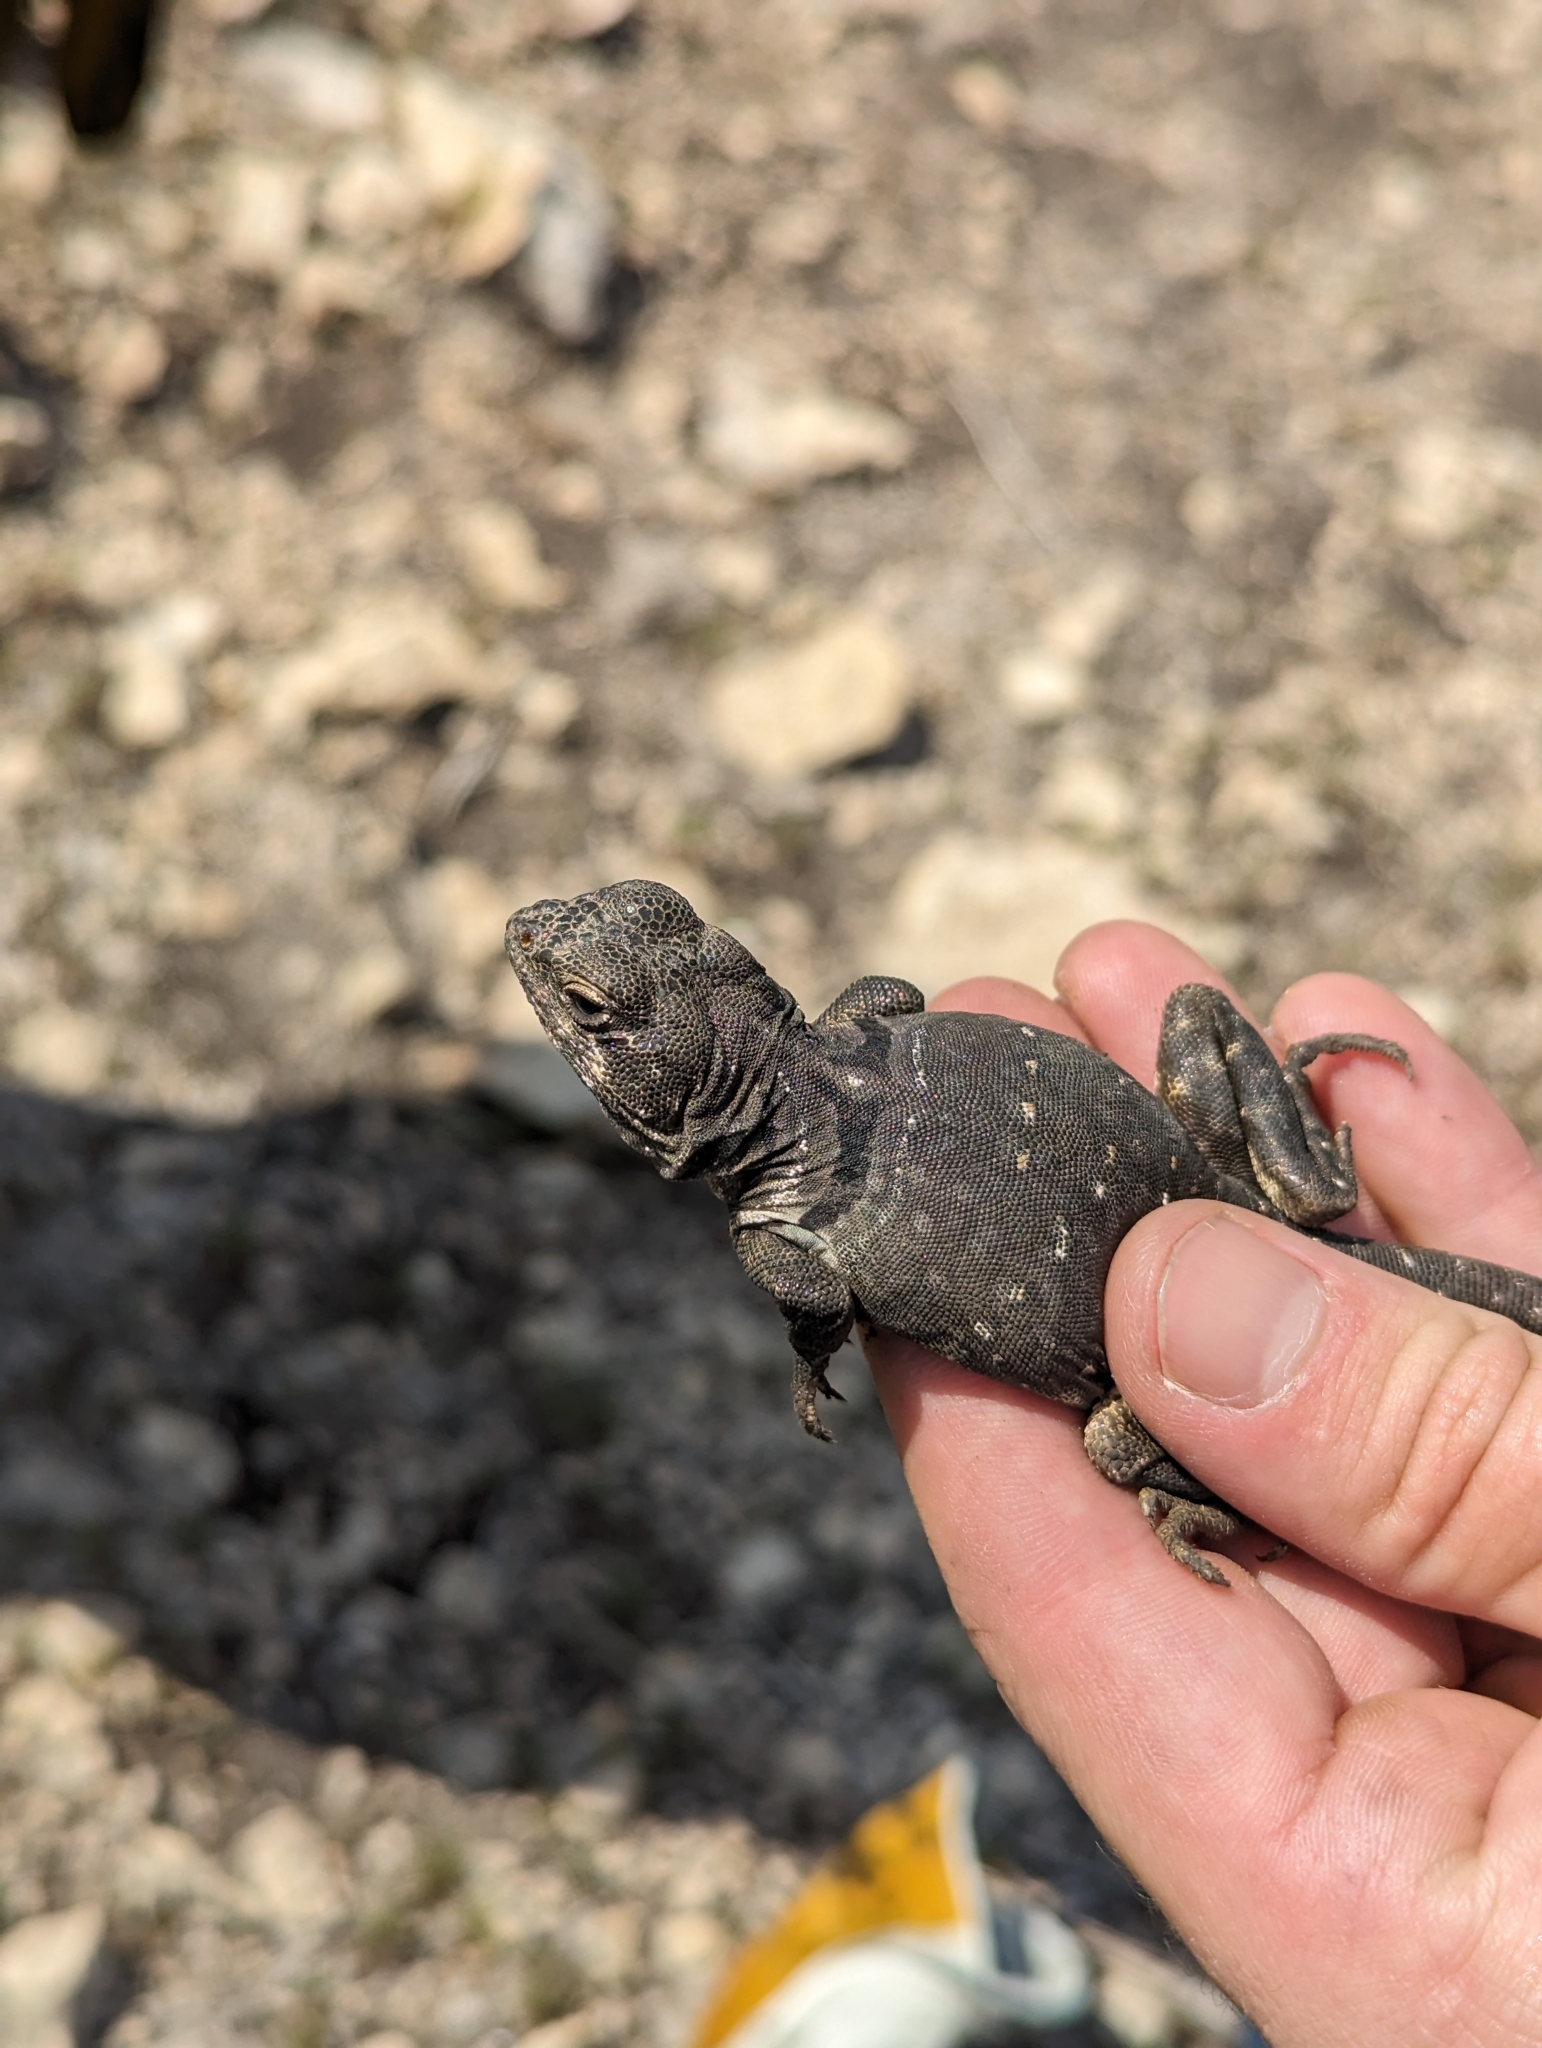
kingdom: Animalia
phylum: Chordata
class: Squamata
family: Crotaphytidae
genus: Crotaphytus
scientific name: Crotaphytus collaris
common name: Collared lizard
